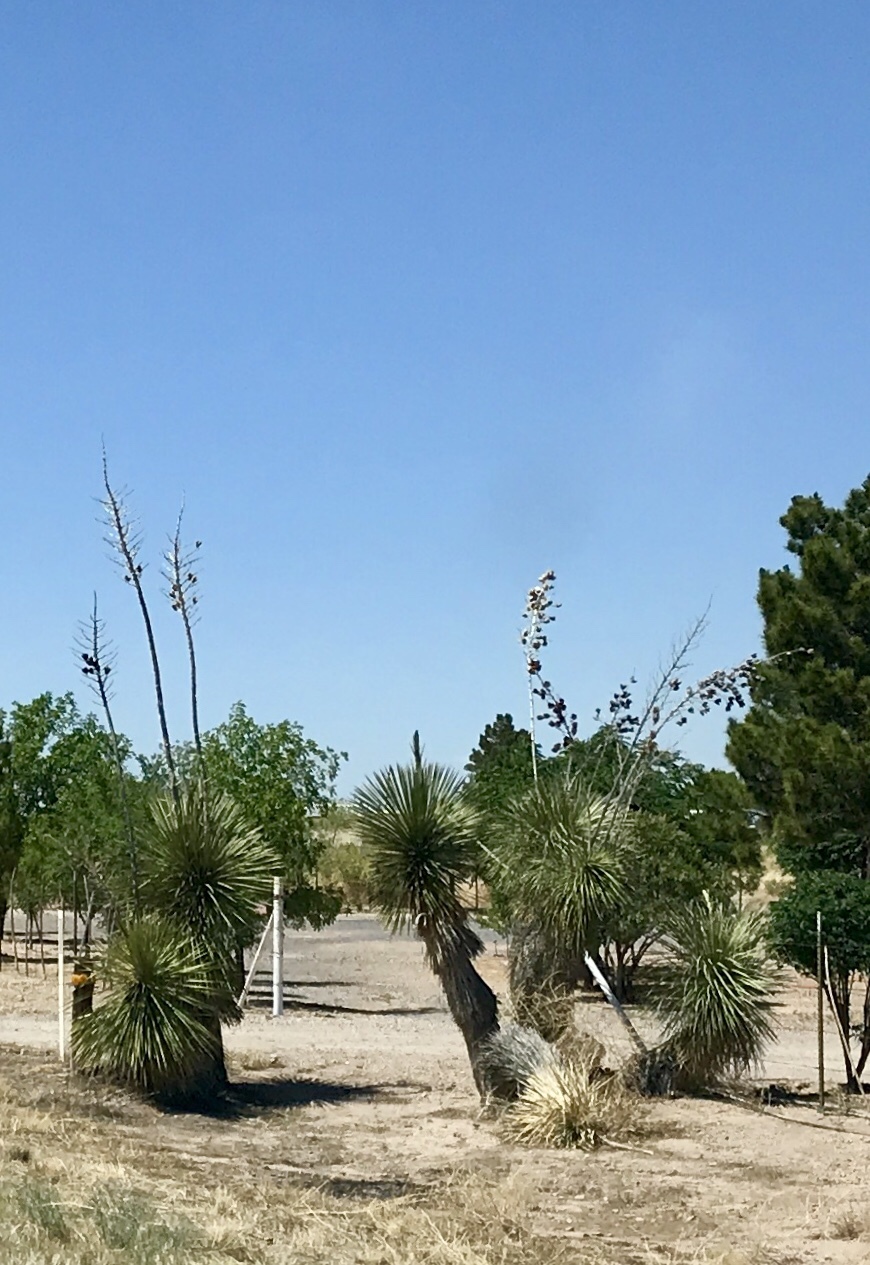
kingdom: Plantae
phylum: Tracheophyta
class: Liliopsida
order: Asparagales
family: Asparagaceae
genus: Yucca
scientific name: Yucca elata
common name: Palmella
